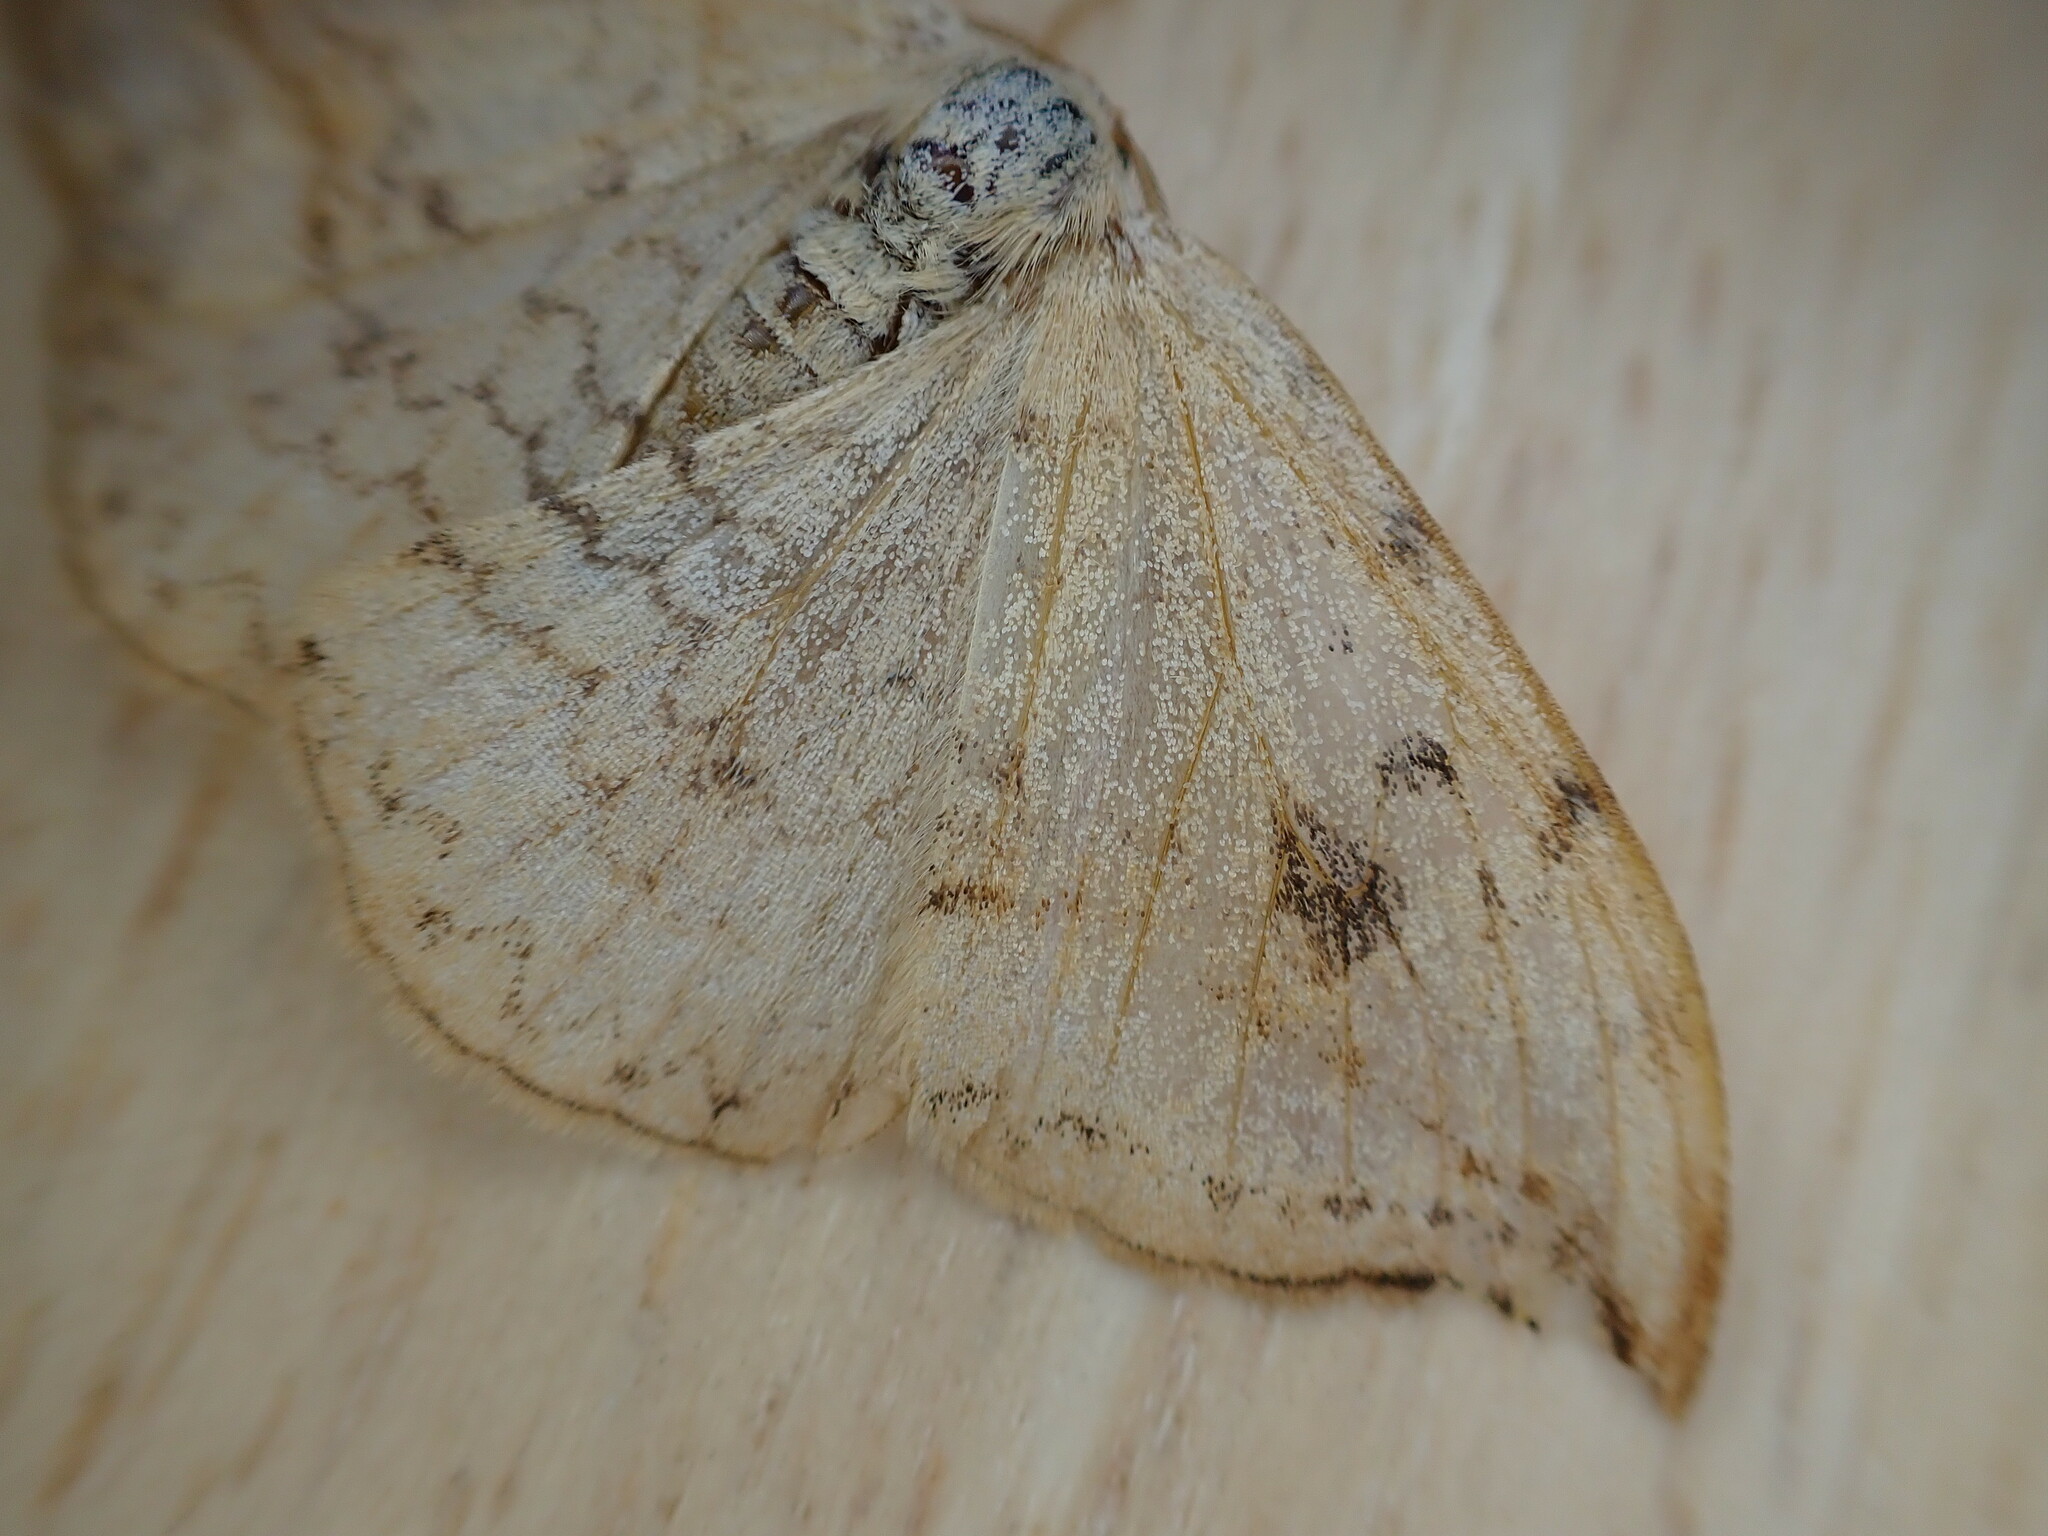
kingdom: Animalia
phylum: Arthropoda
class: Insecta
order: Lepidoptera
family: Drepanidae
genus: Drepana
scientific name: Drepana falcataria
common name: Pebble hook-tip
